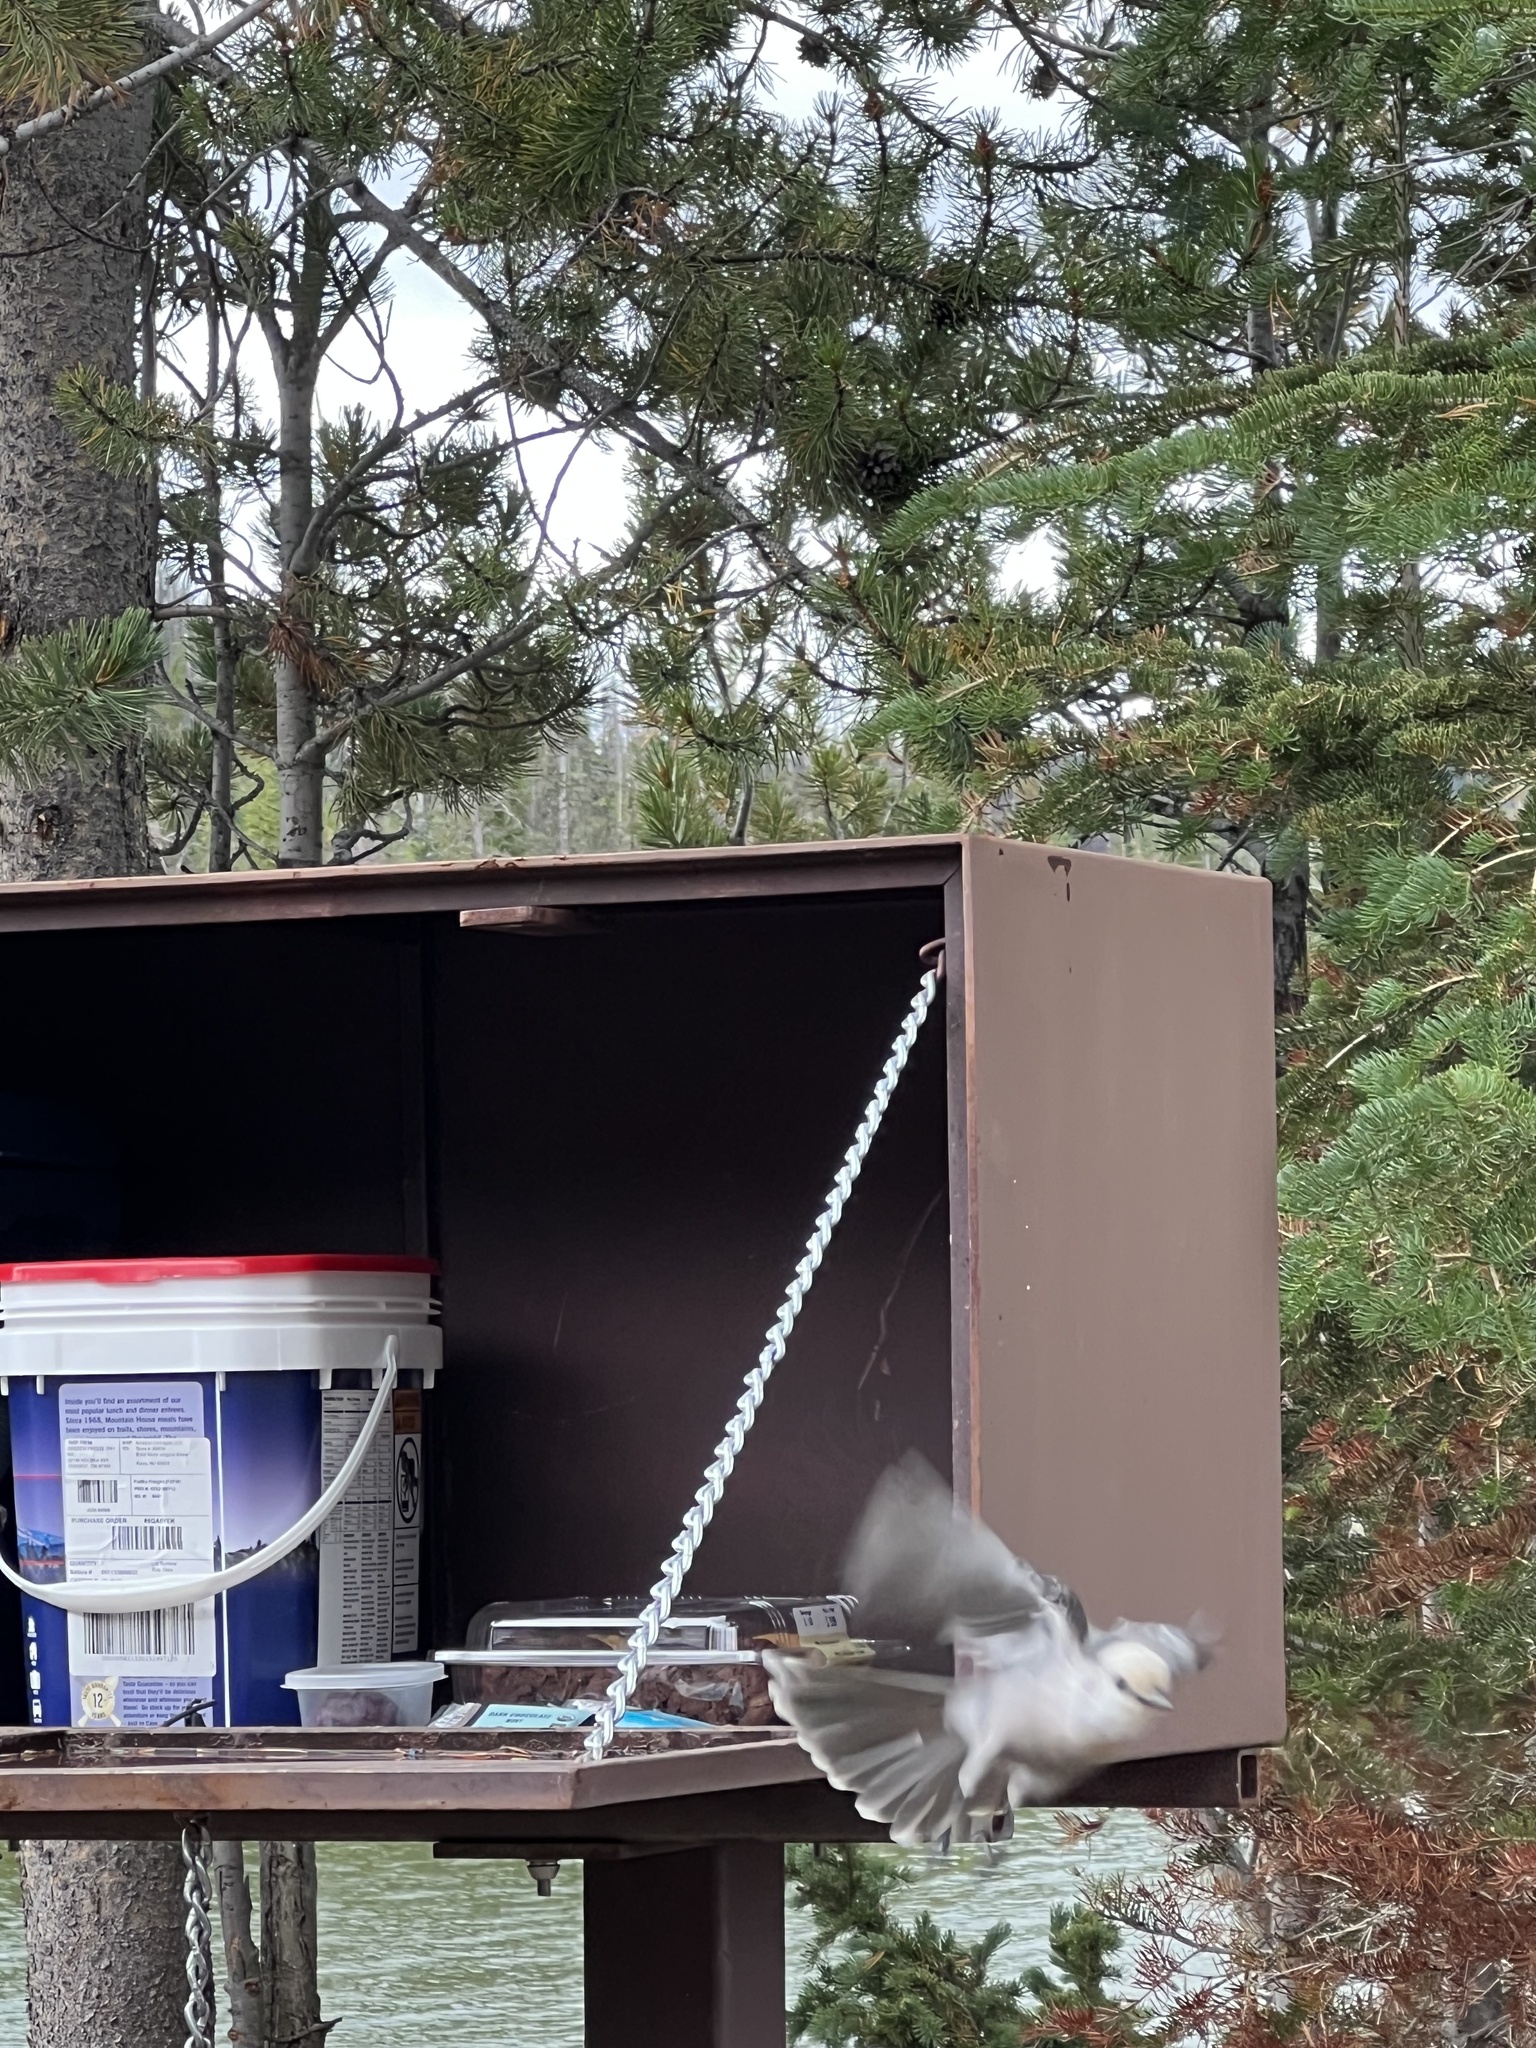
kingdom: Animalia
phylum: Chordata
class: Aves
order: Passeriformes
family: Corvidae
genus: Perisoreus
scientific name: Perisoreus canadensis
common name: Gray jay
